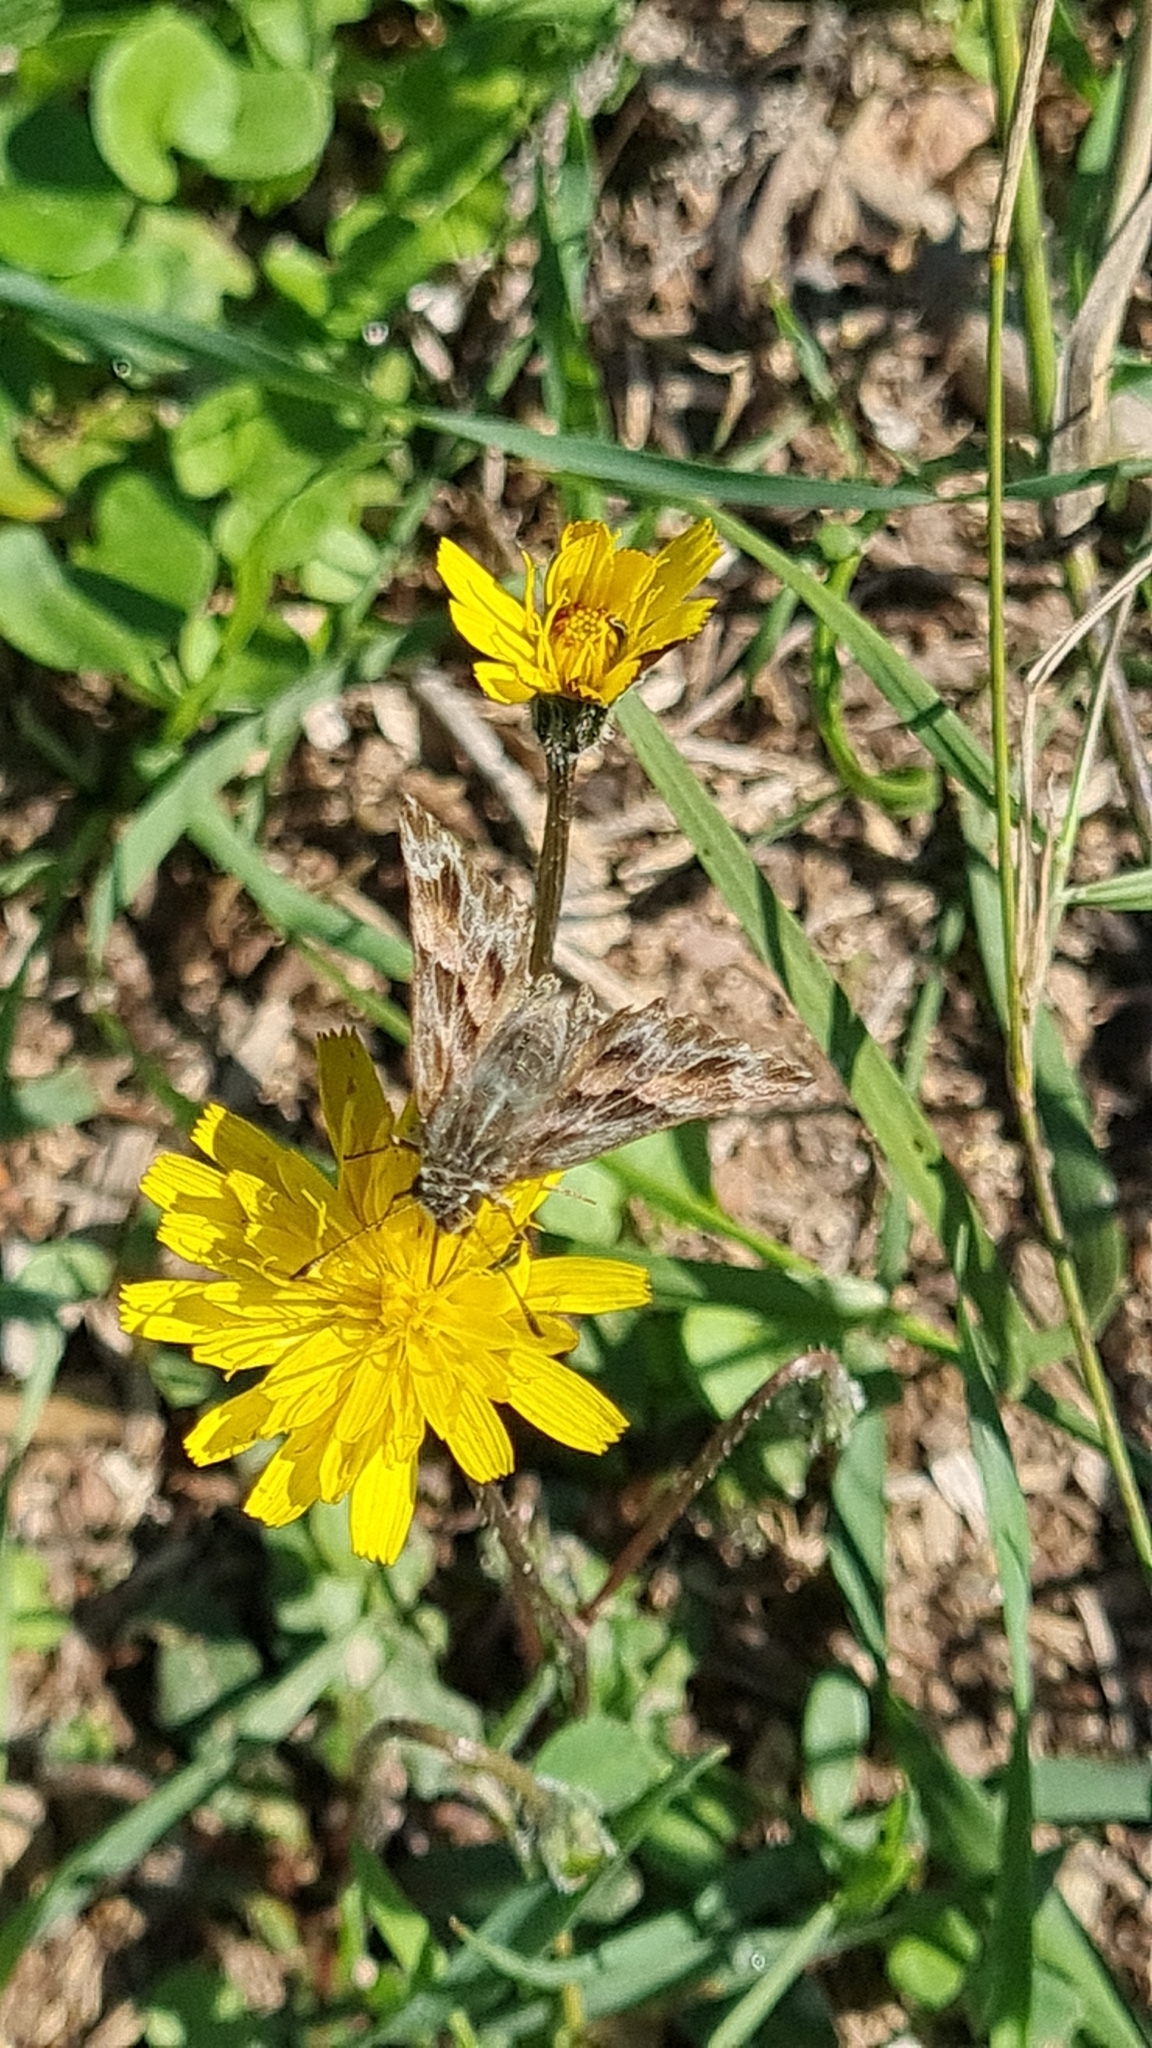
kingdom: Animalia
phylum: Arthropoda
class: Insecta
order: Lepidoptera
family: Hesperiidae
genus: Carcharodus
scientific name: Carcharodus alceae
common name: Mallow skipper
